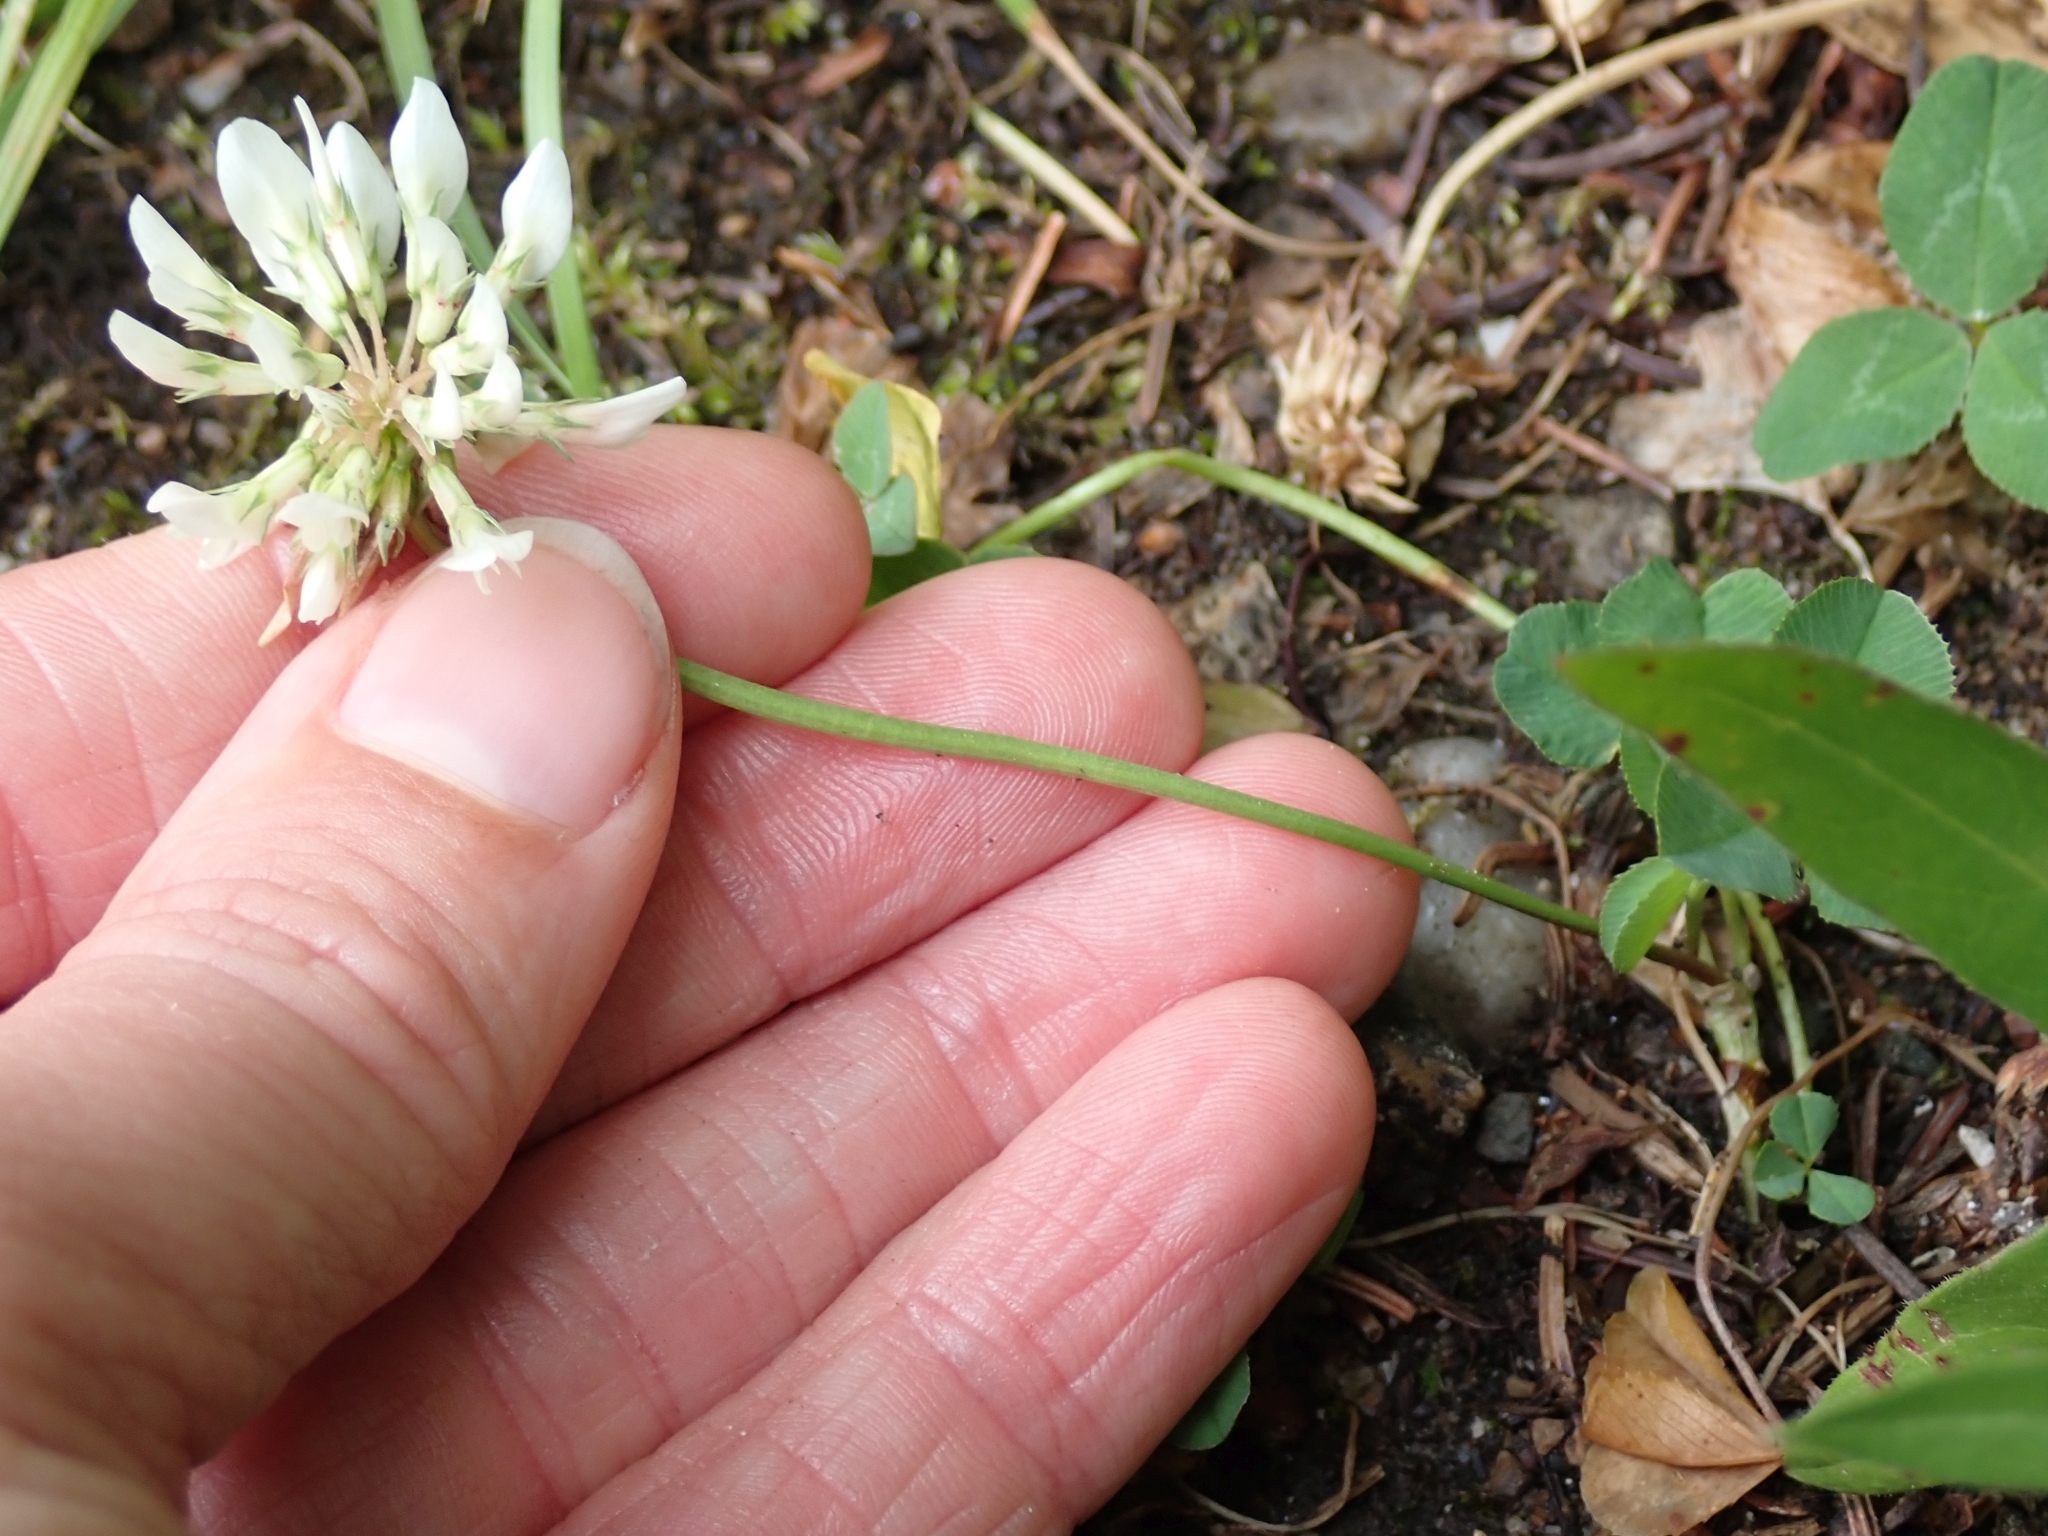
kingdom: Plantae
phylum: Tracheophyta
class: Magnoliopsida
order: Fabales
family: Fabaceae
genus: Trifolium
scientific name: Trifolium repens
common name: White clover
